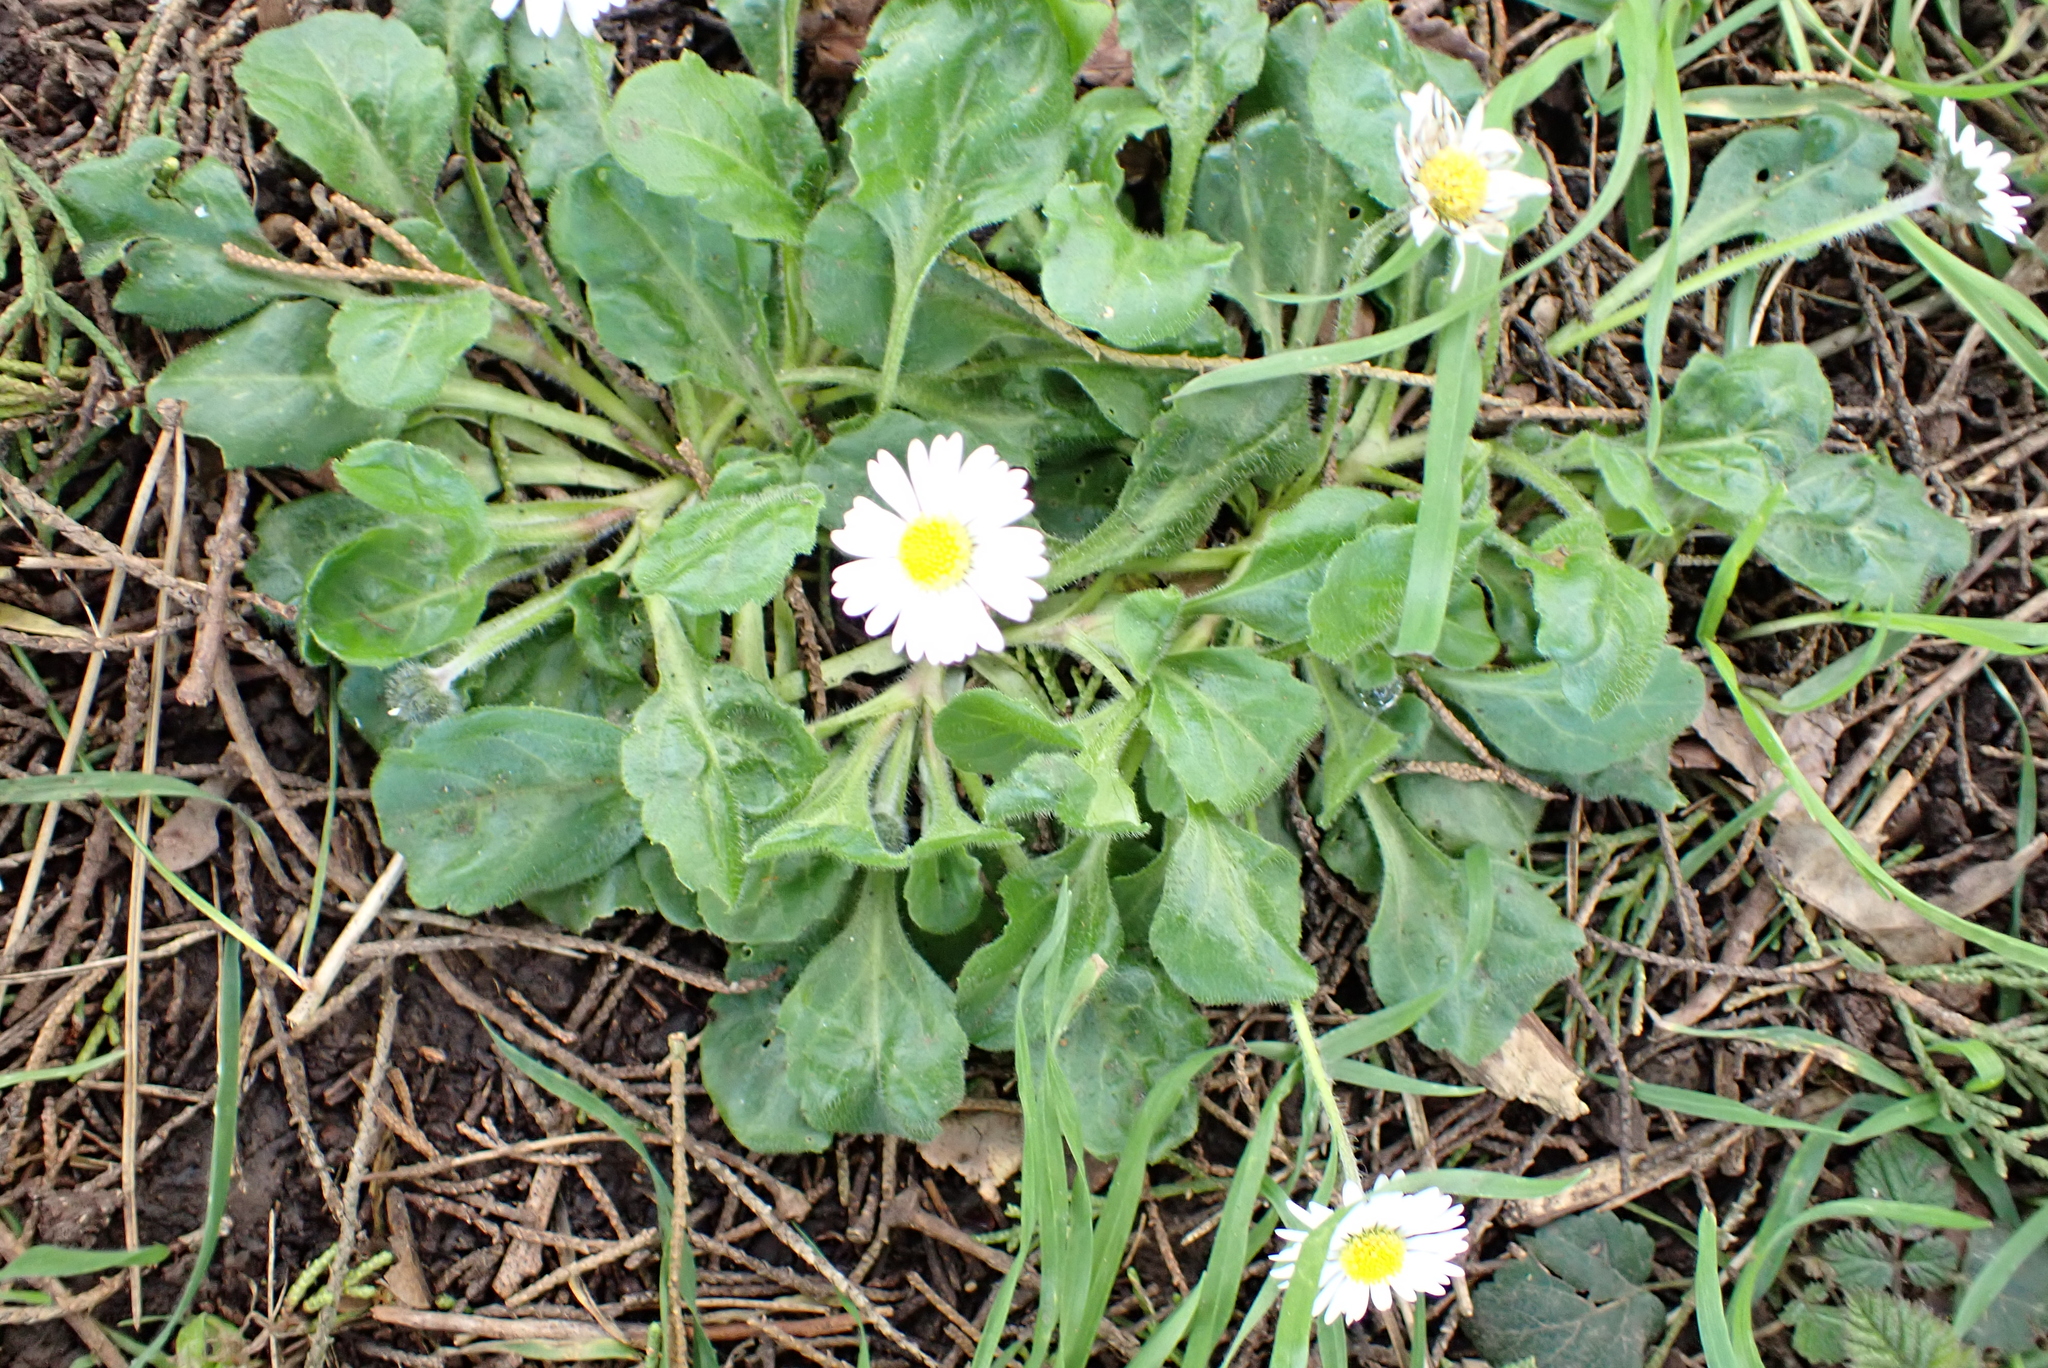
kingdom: Plantae
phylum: Tracheophyta
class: Magnoliopsida
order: Asterales
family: Asteraceae
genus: Bellis
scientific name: Bellis perennis
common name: Lawndaisy
